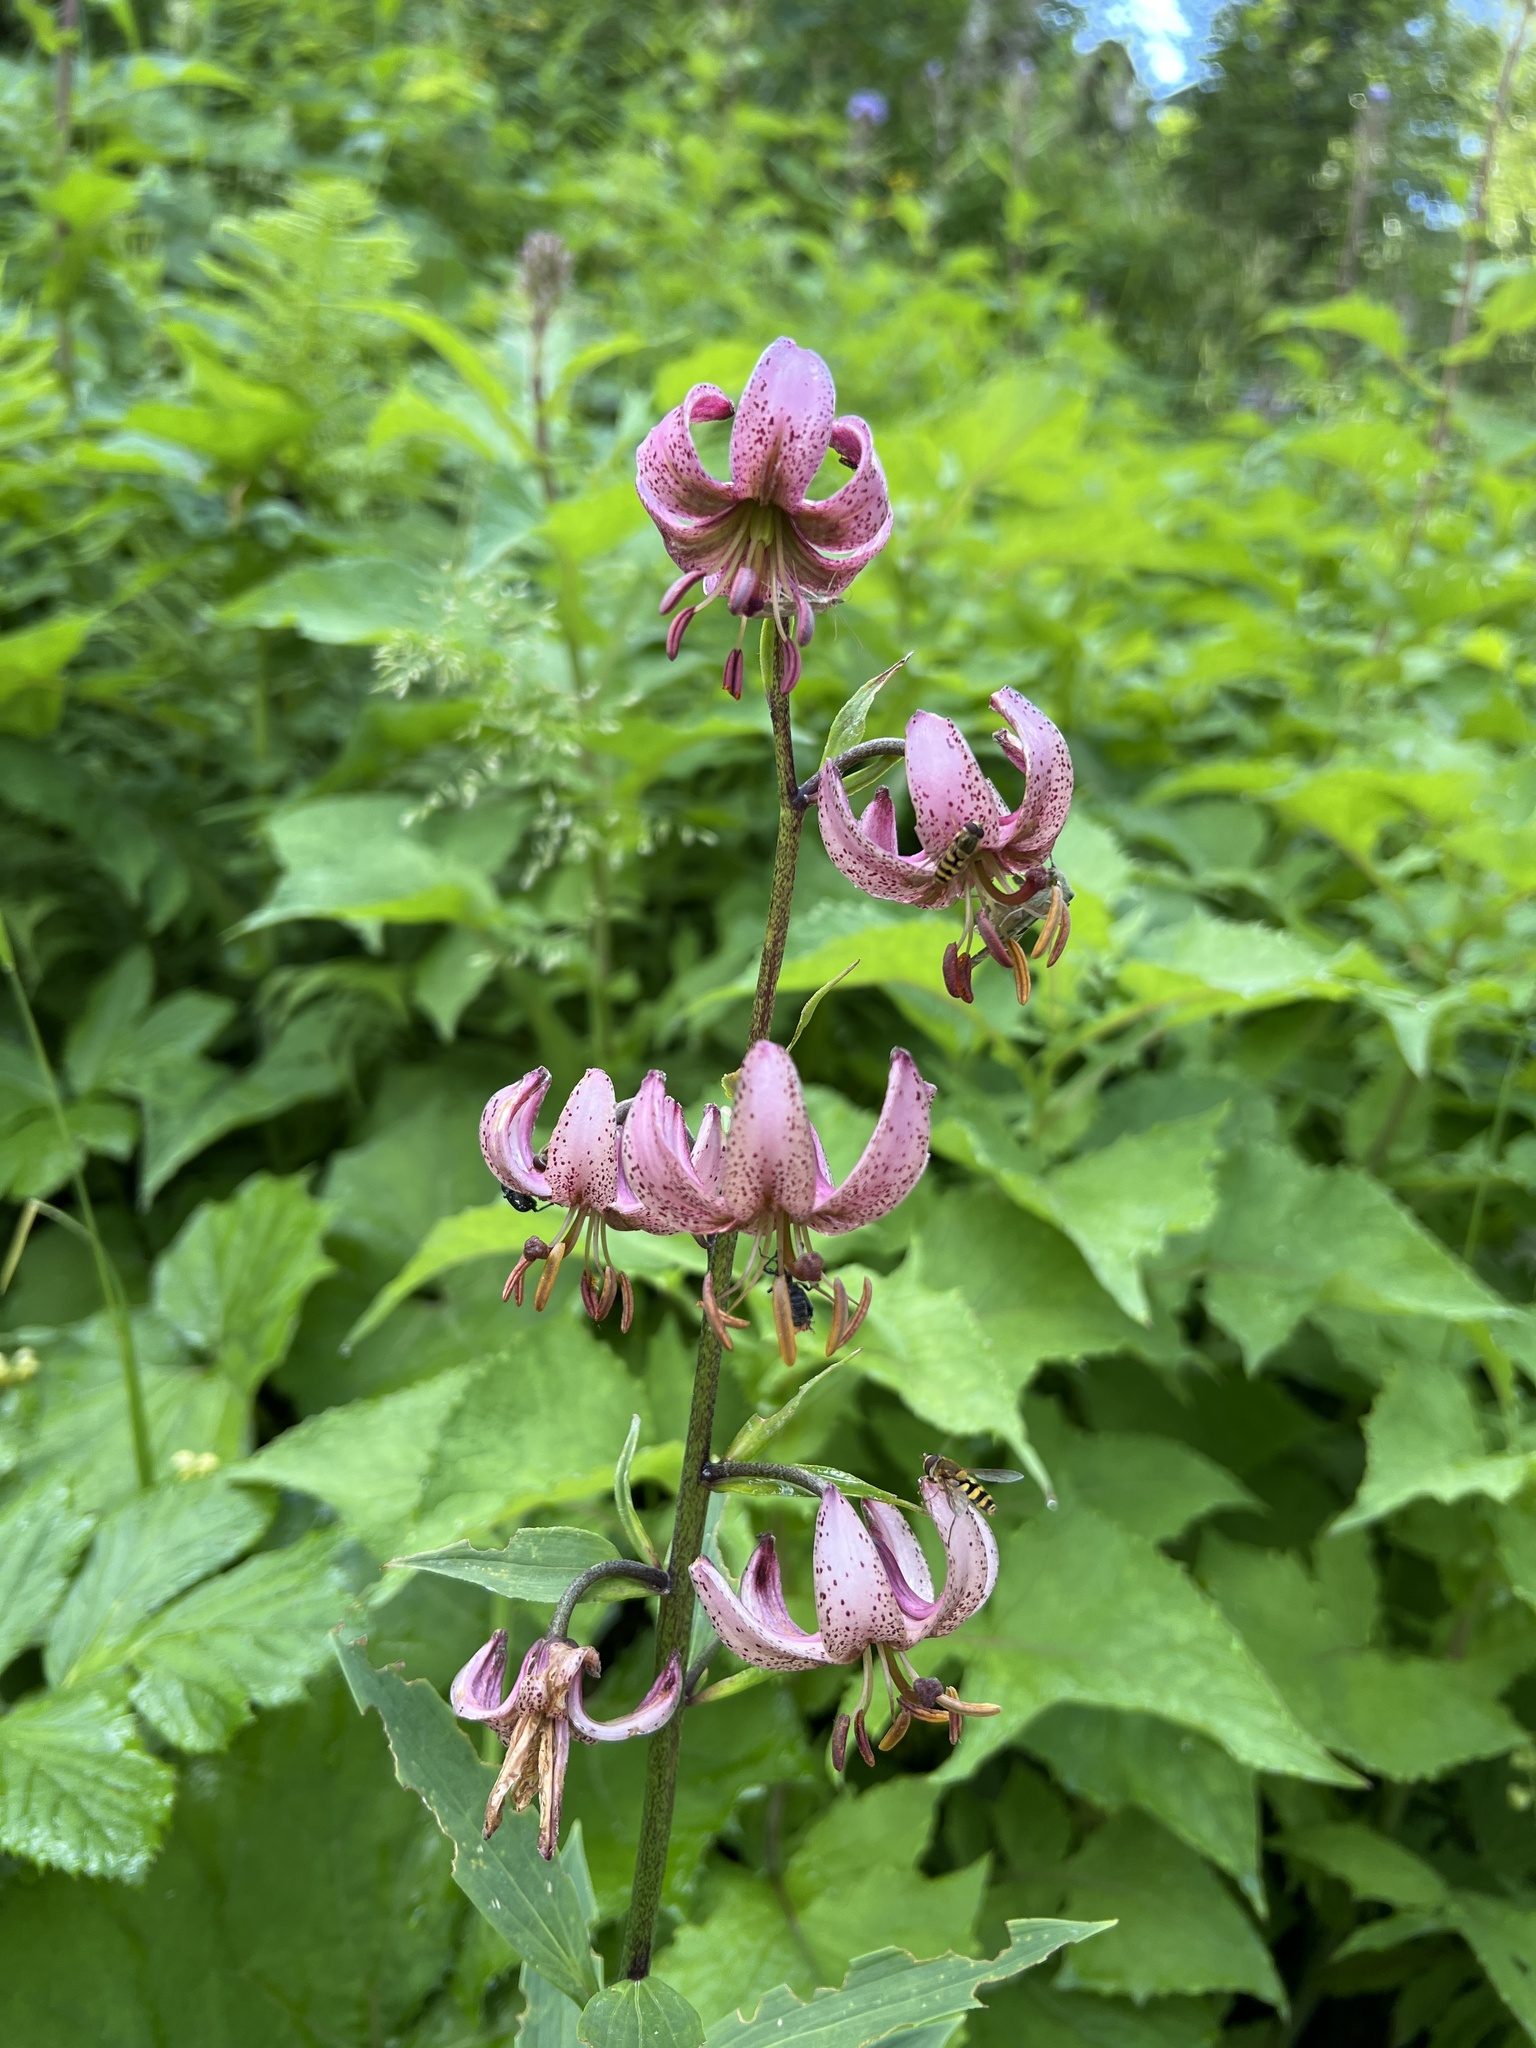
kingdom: Plantae
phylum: Tracheophyta
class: Liliopsida
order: Liliales
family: Liliaceae
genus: Lilium
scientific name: Lilium martagon
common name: Martagon lily
